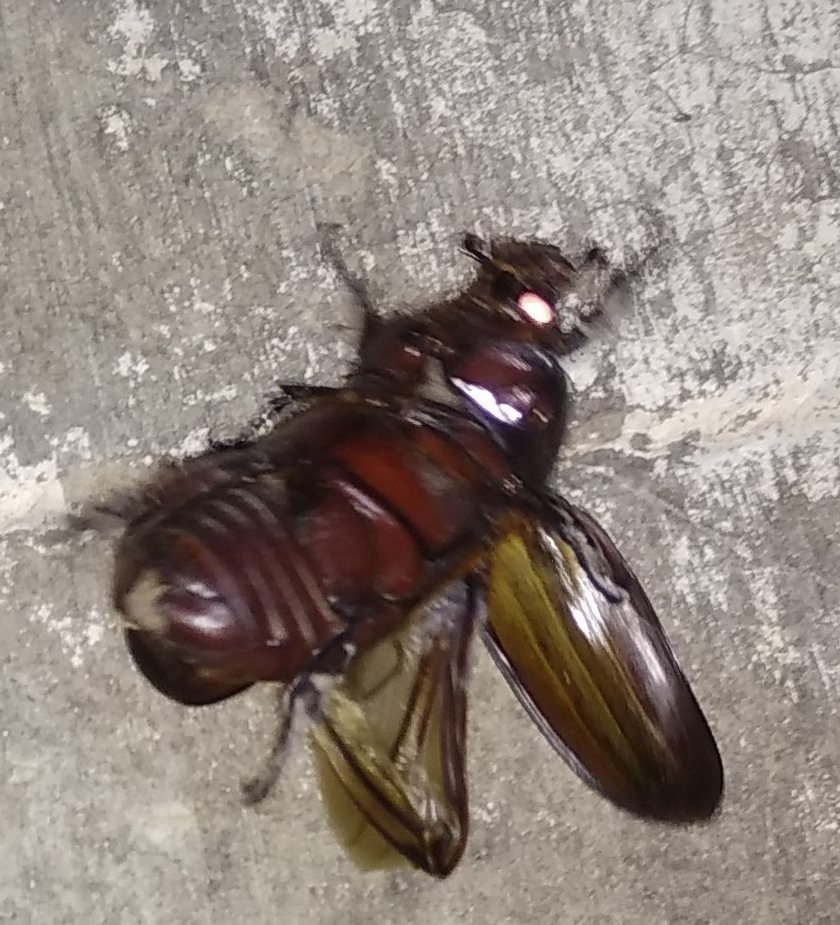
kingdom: Animalia
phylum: Arthropoda
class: Insecta
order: Coleoptera
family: Scarabaeidae
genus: Oryctes
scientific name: Oryctes rhinoceros
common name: Coconut rhinoceros beetle
